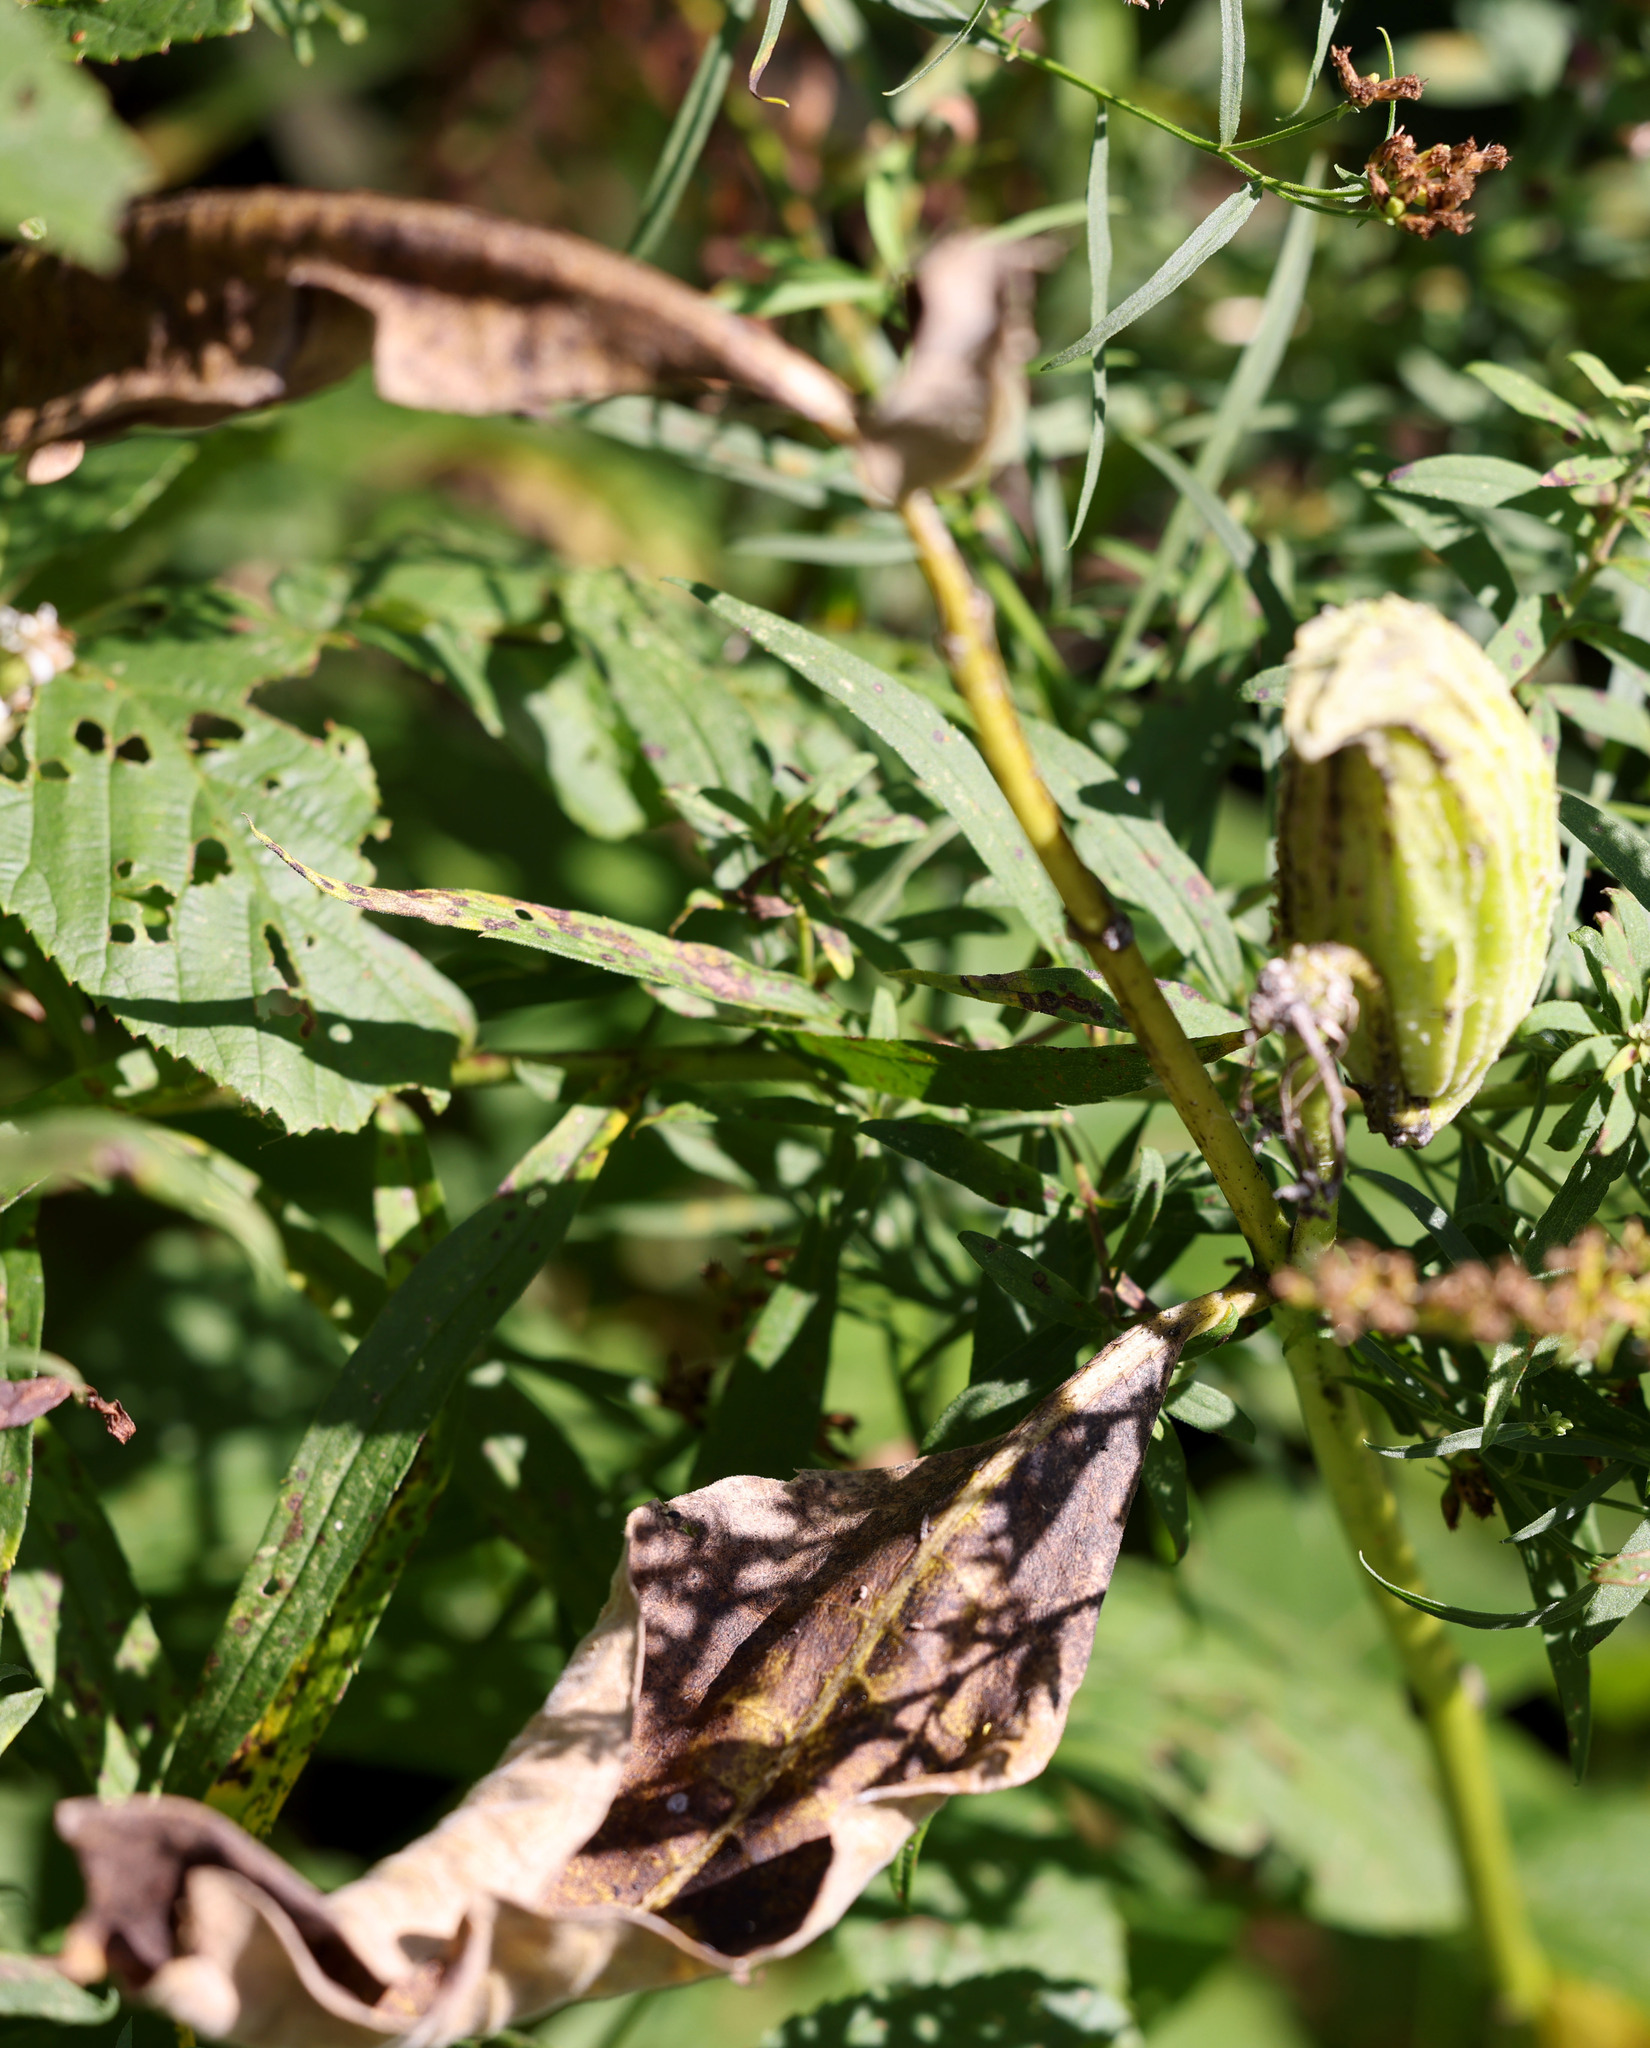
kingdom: Plantae
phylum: Tracheophyta
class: Magnoliopsida
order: Gentianales
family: Apocynaceae
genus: Asclepias
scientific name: Asclepias syriaca
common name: Common milkweed
